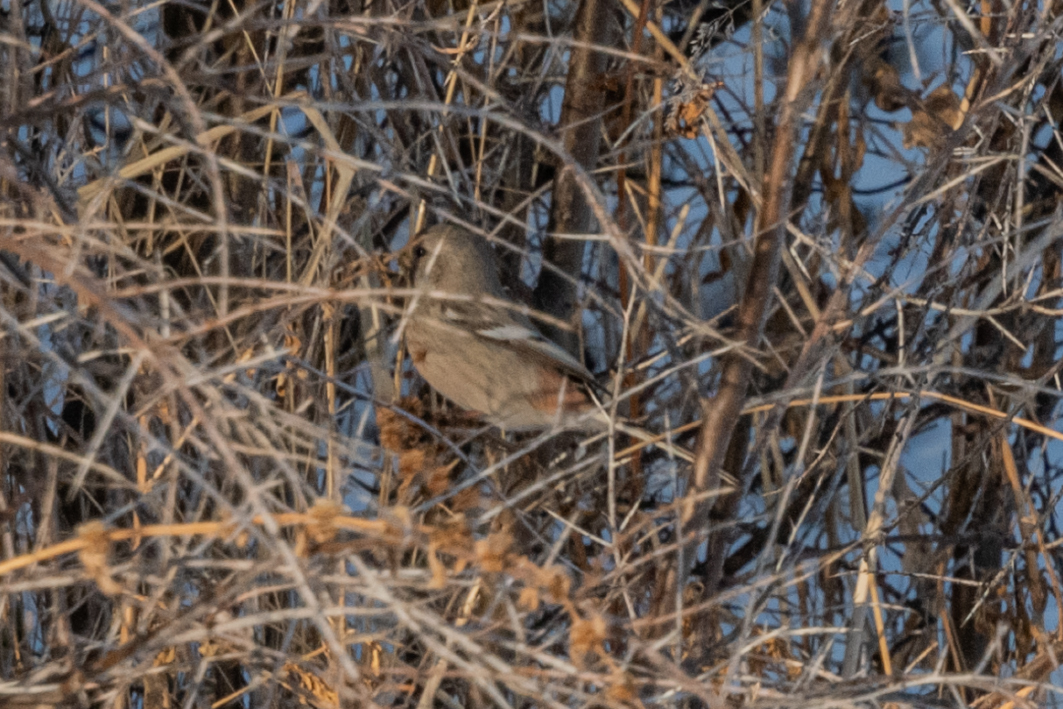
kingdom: Animalia
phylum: Chordata
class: Aves
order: Passeriformes
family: Fringillidae
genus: Carpodacus
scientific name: Carpodacus sibiricus
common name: Long-tailed rosefinch
